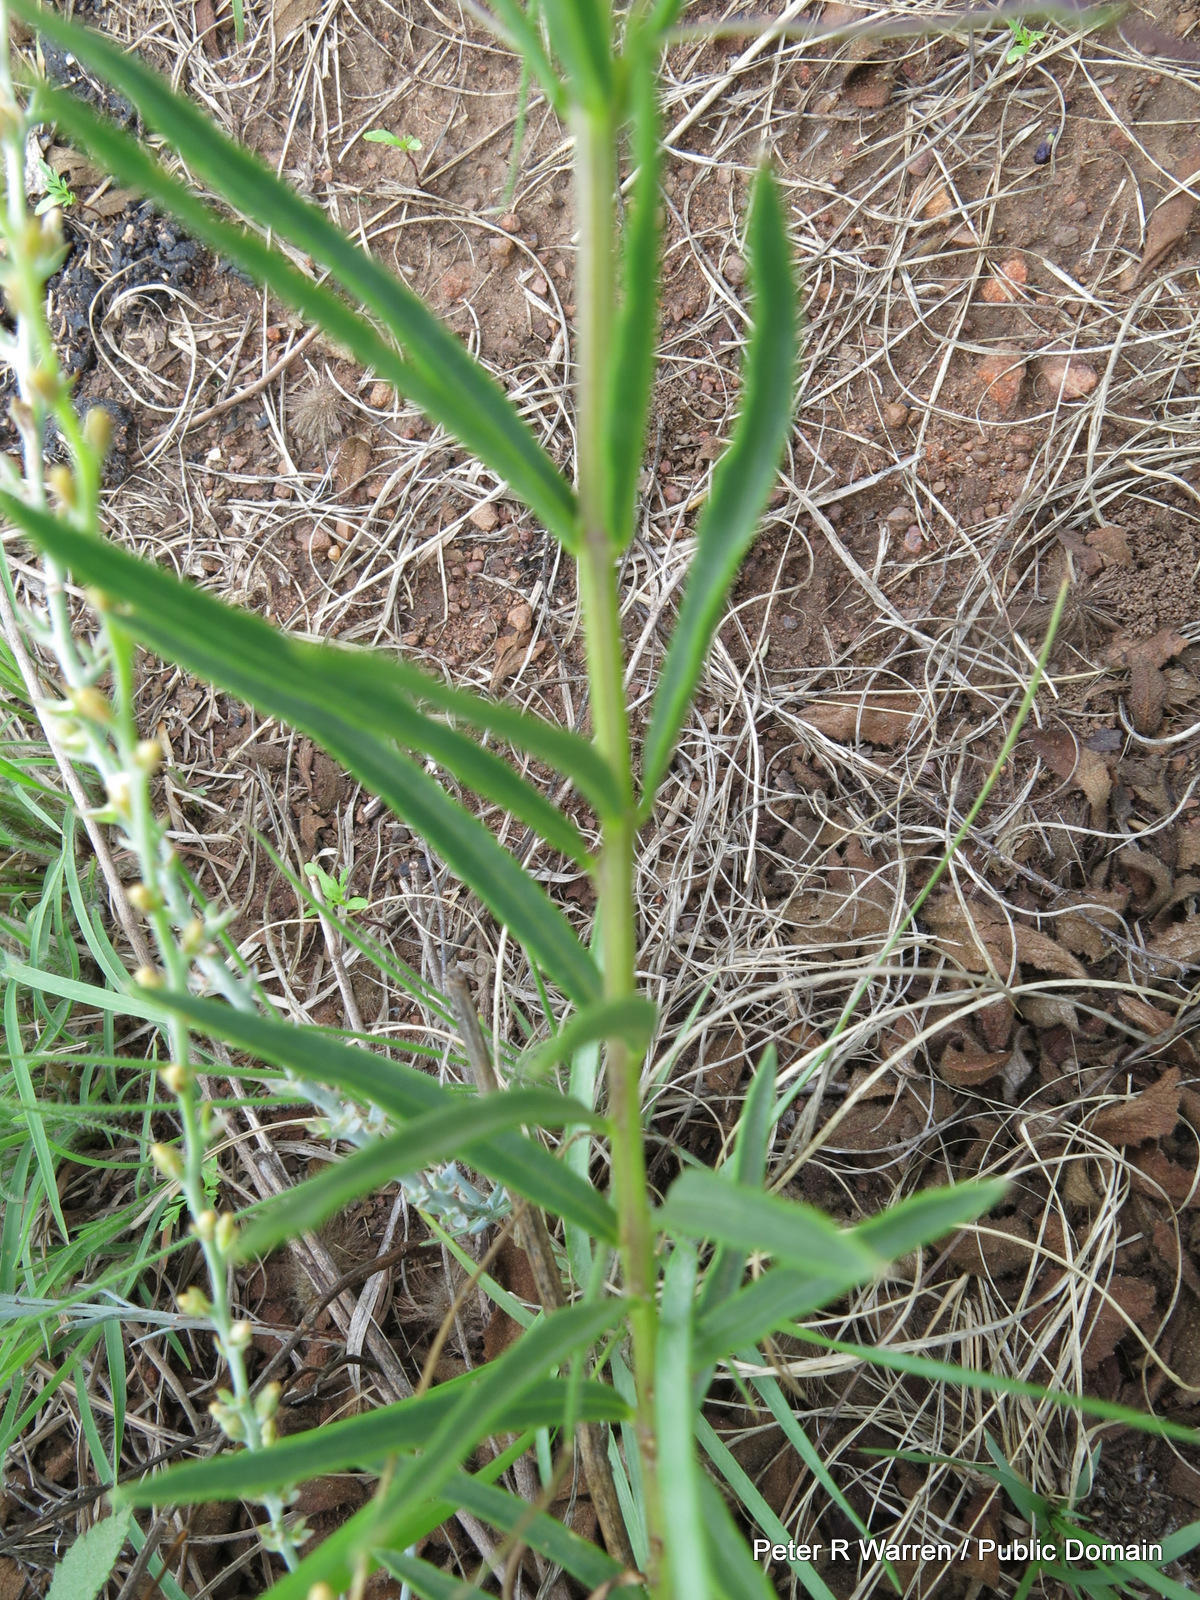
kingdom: Plantae
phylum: Tracheophyta
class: Magnoliopsida
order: Lamiales
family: Lamiaceae
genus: Rotheca
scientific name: Rotheca louwalbertsii
